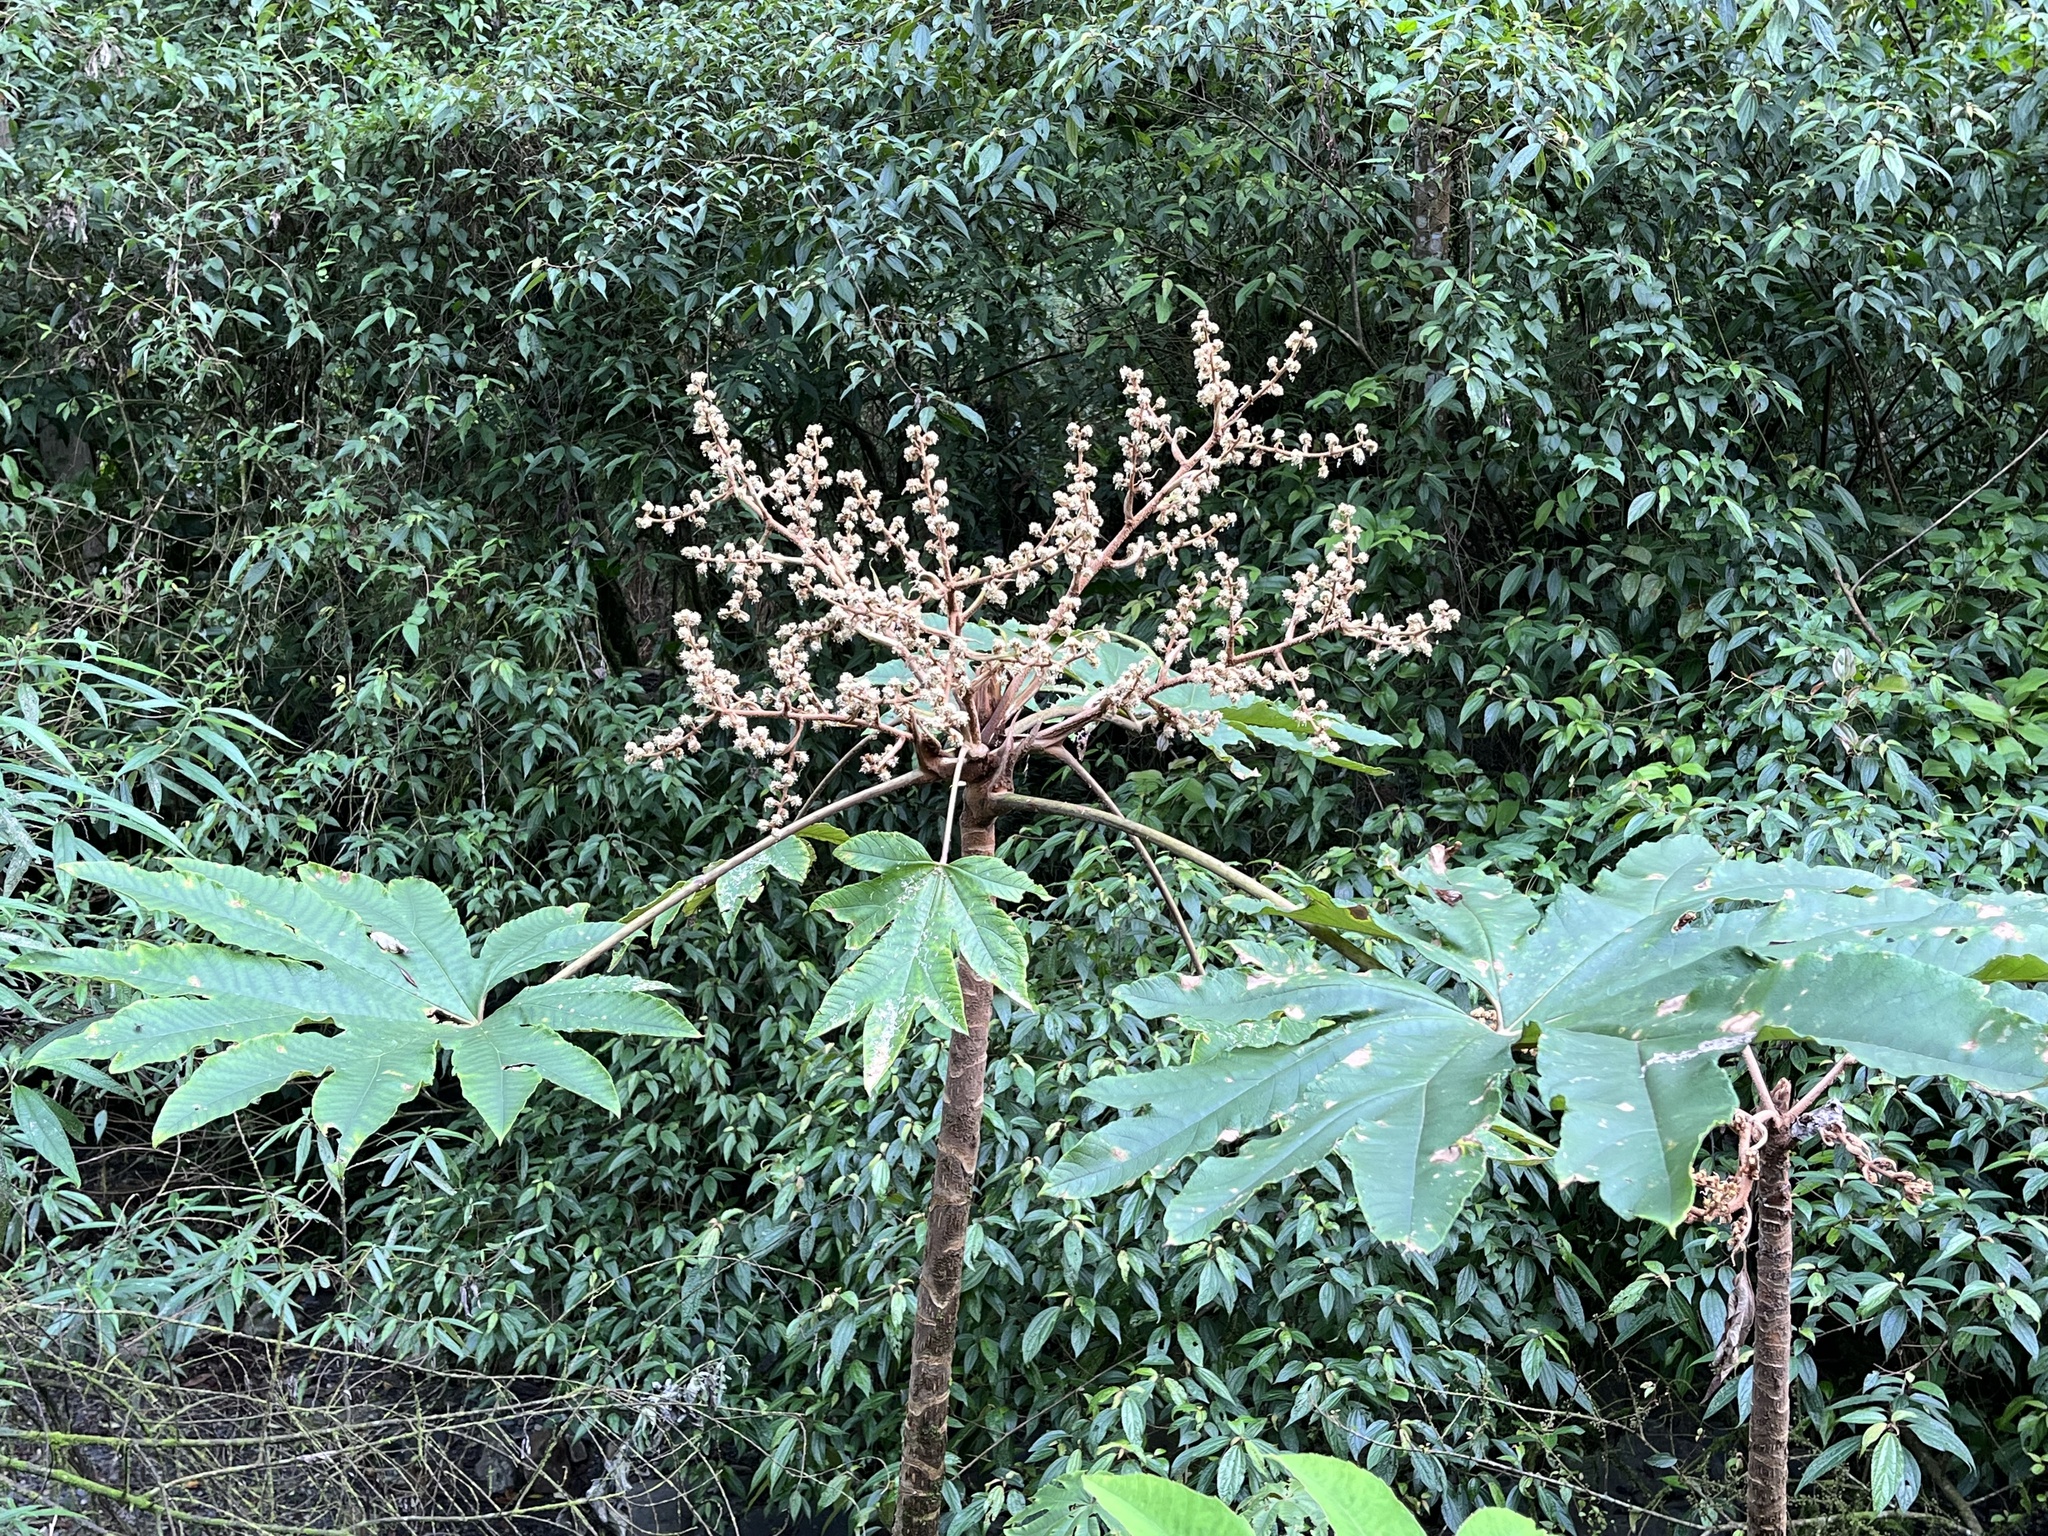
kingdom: Plantae
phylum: Tracheophyta
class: Magnoliopsida
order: Apiales
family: Araliaceae
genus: Tetrapanax
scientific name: Tetrapanax papyrifer
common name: Rice-paper plant
